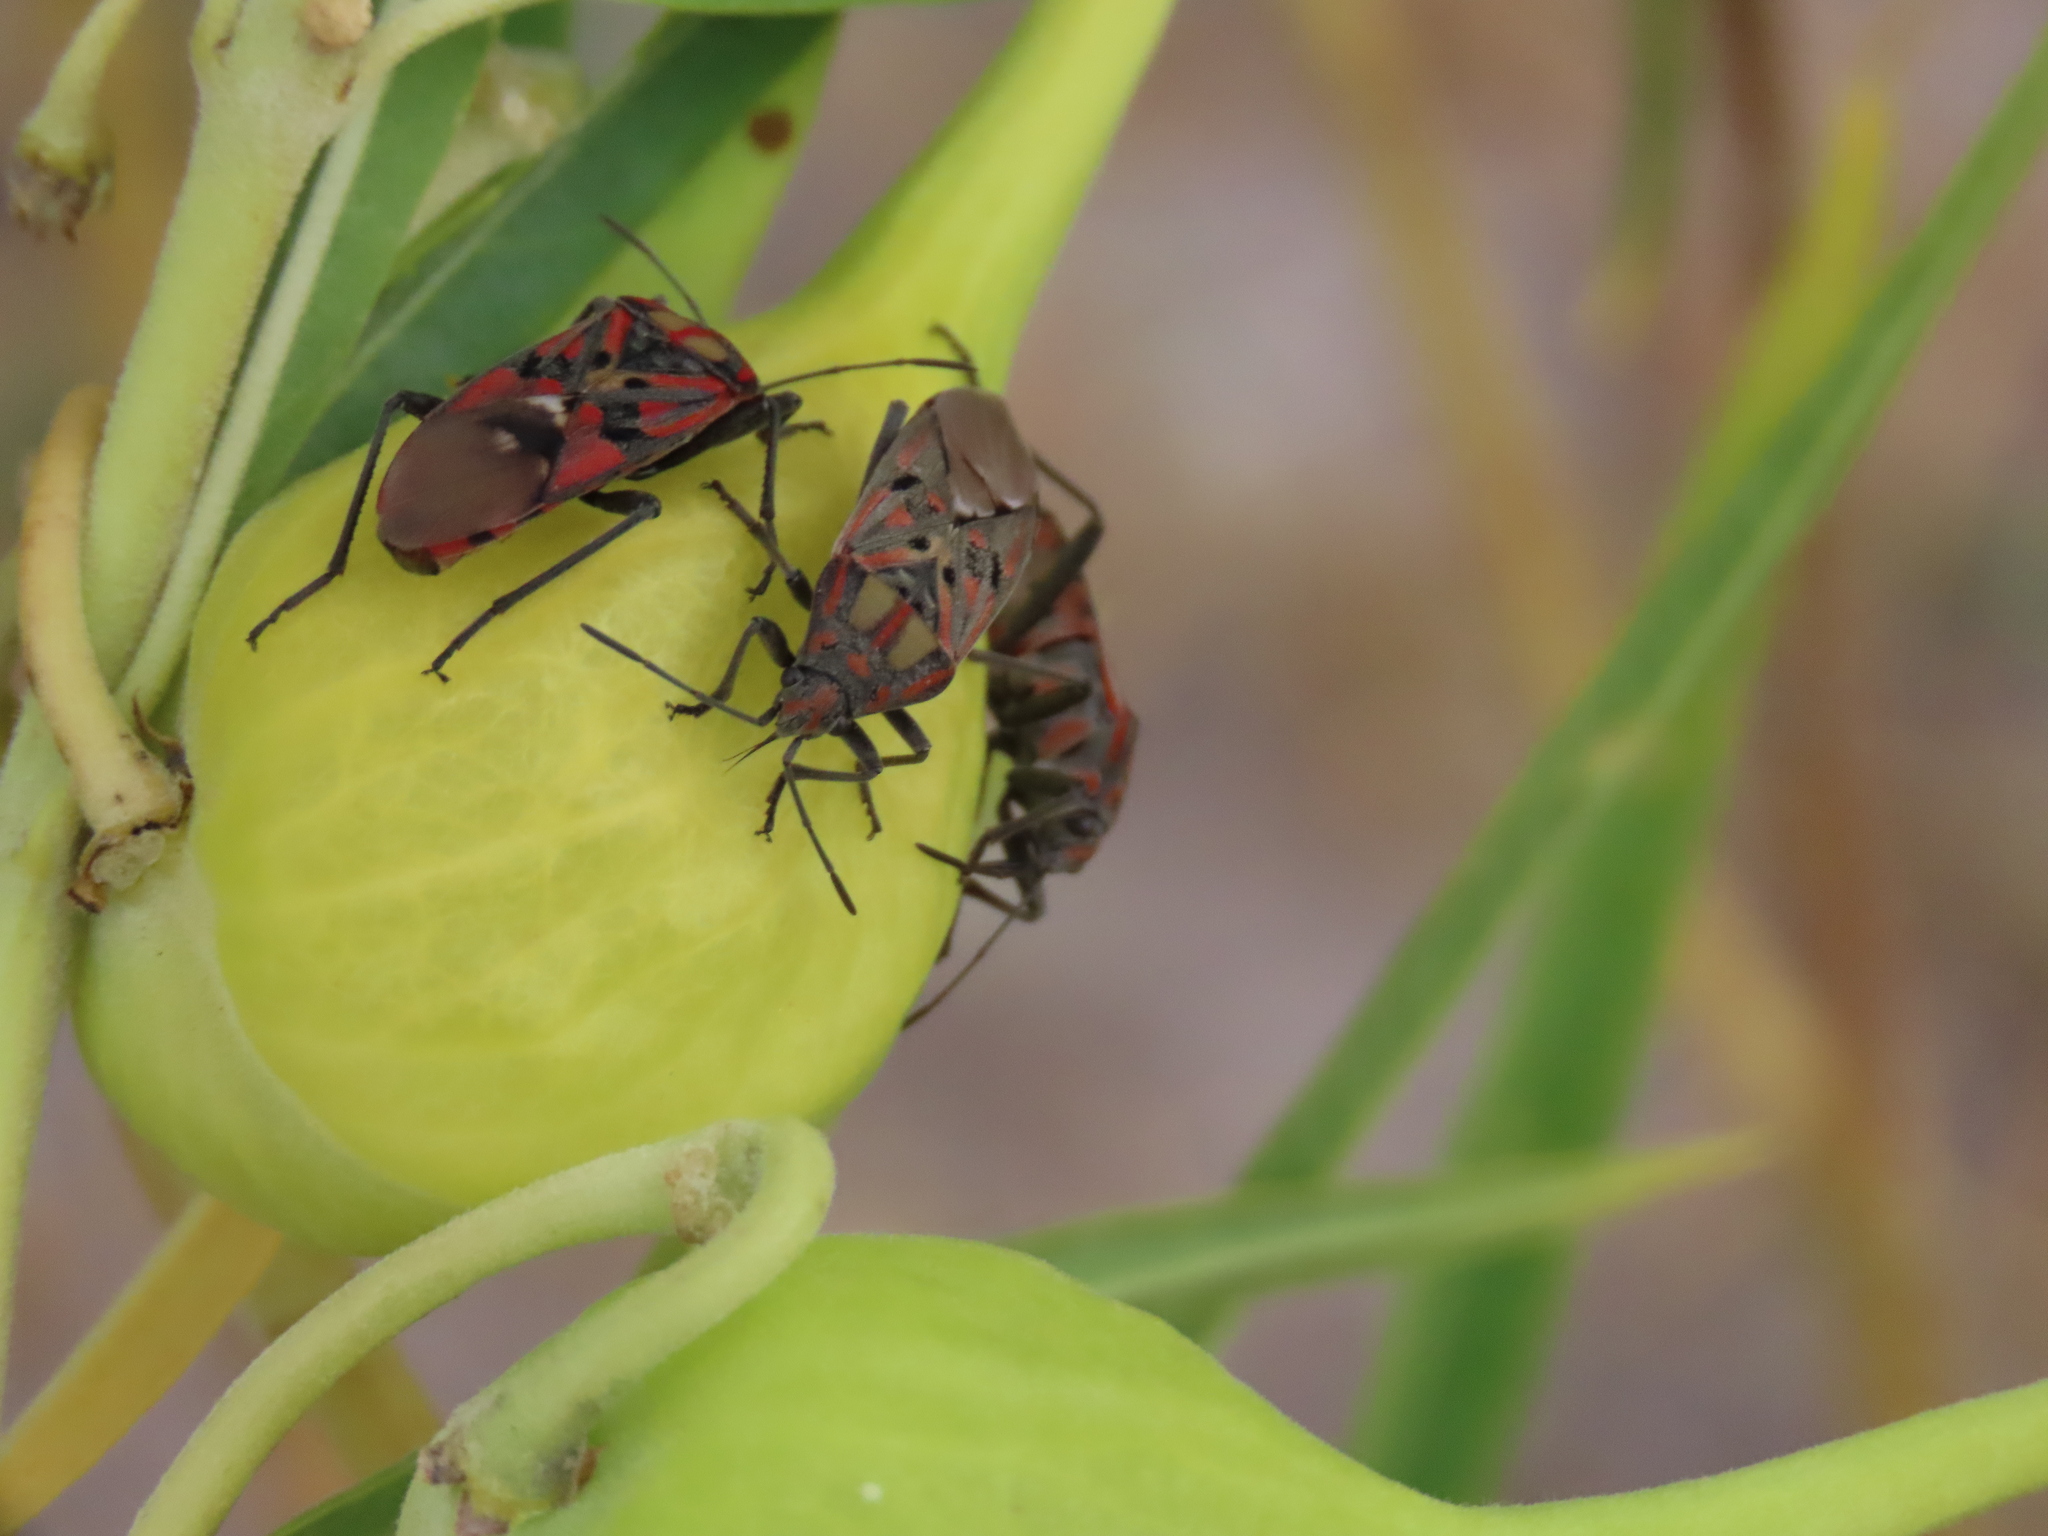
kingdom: Animalia
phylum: Arthropoda
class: Insecta
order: Hemiptera
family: Lygaeidae
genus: Spilostethus
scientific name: Spilostethus pandurus
